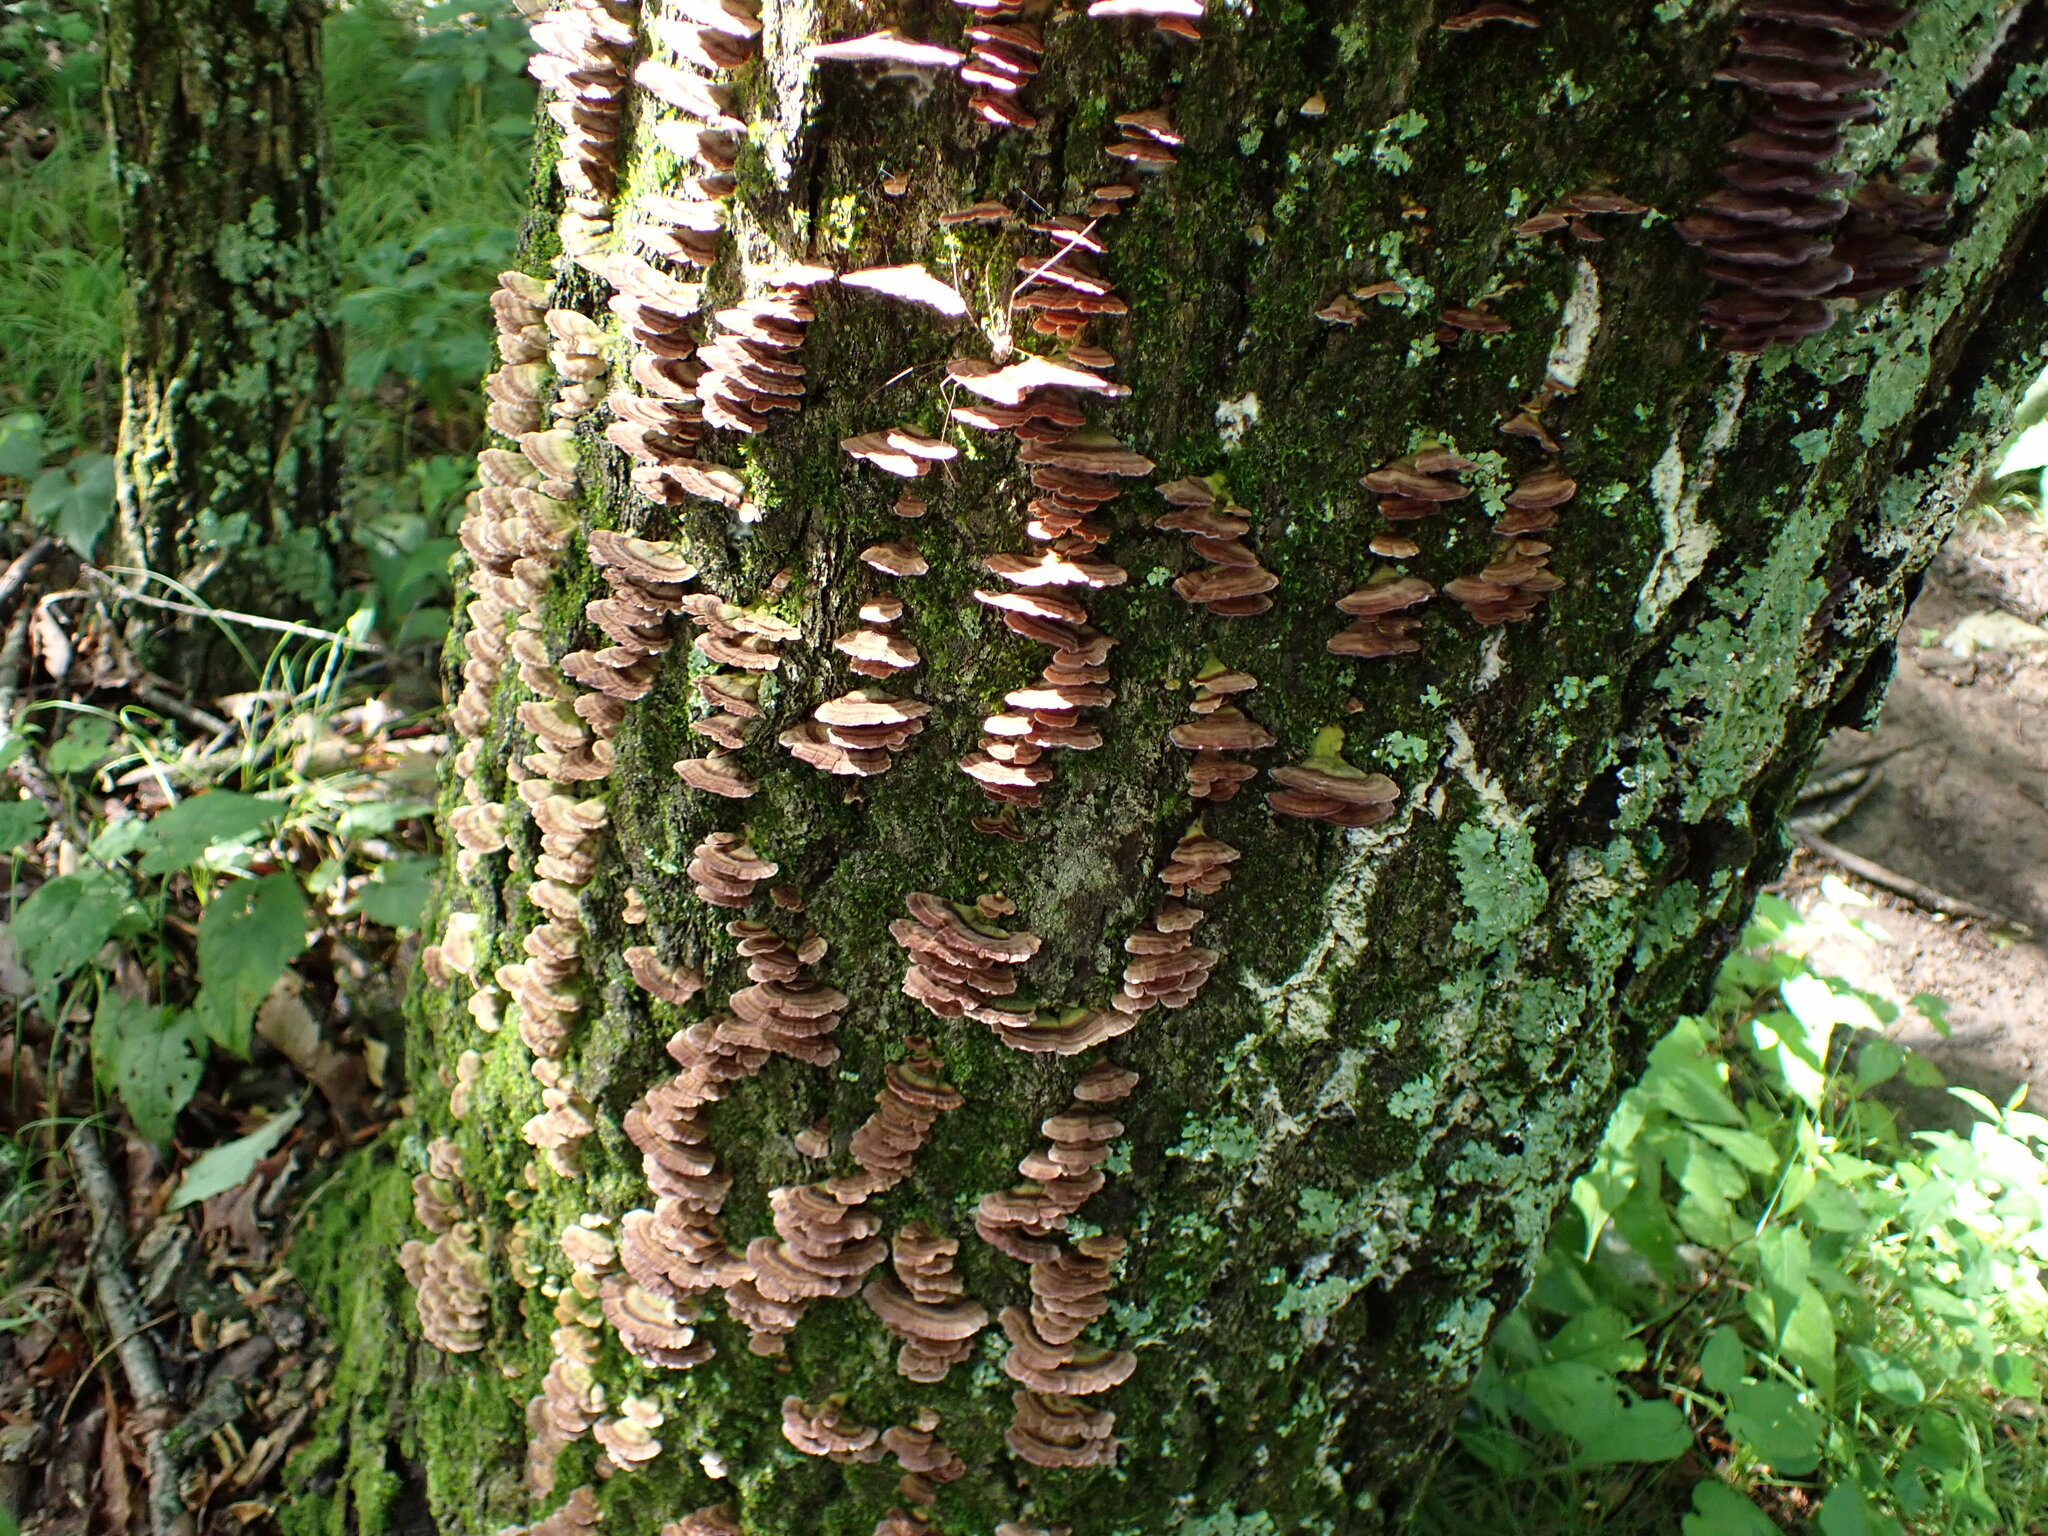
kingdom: Fungi
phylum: Basidiomycota
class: Agaricomycetes
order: Hymenochaetales
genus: Trichaptum
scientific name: Trichaptum biforme
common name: Violet-toothed polypore
